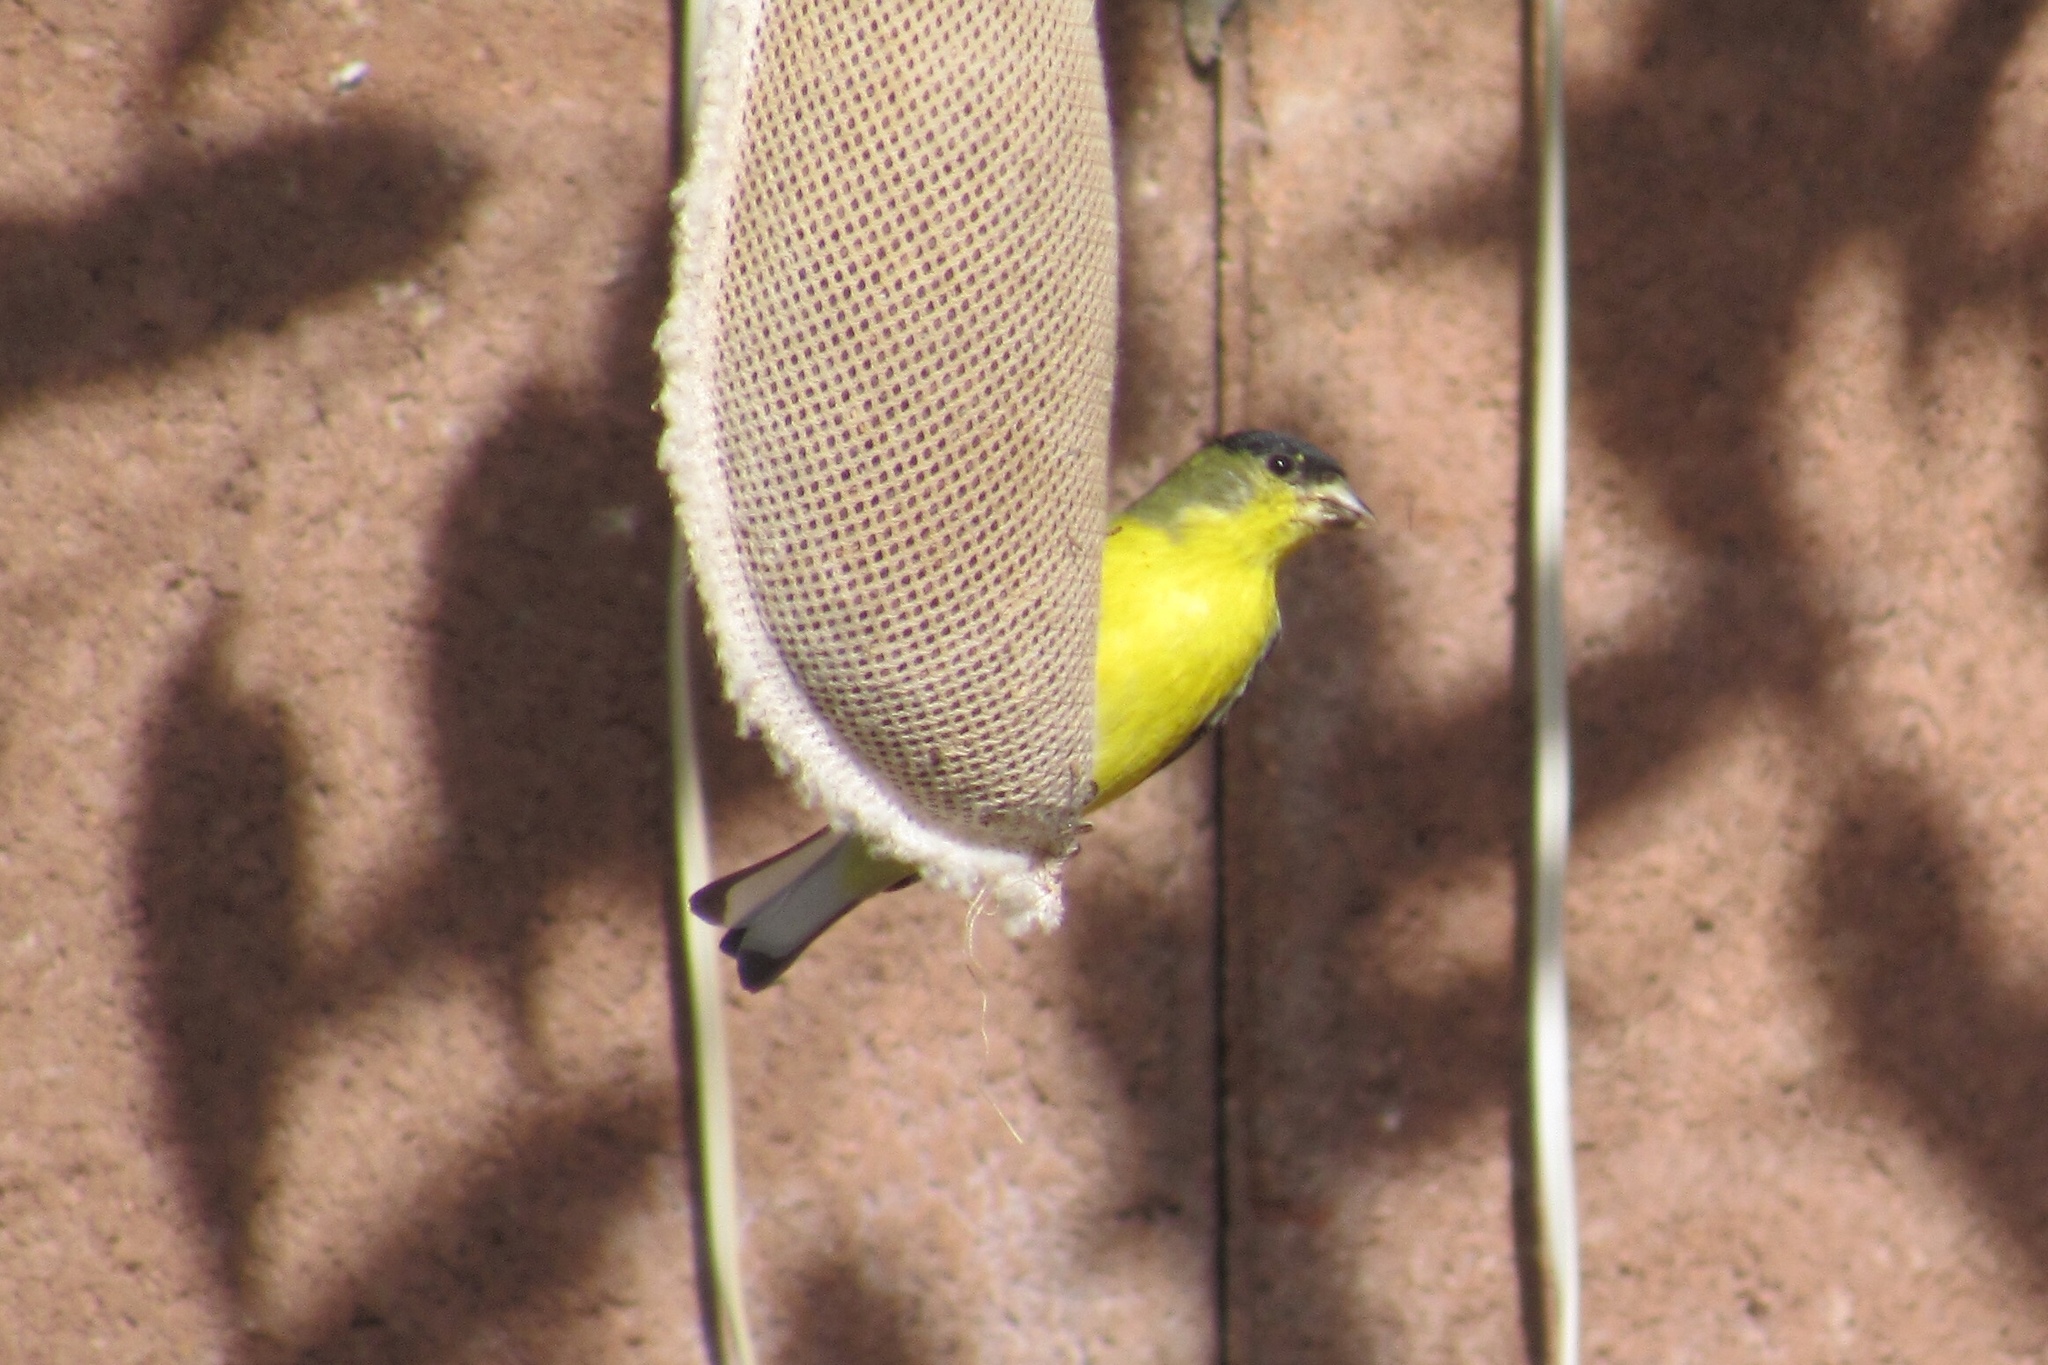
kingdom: Animalia
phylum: Chordata
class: Aves
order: Passeriformes
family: Fringillidae
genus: Spinus
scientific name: Spinus psaltria
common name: Lesser goldfinch
